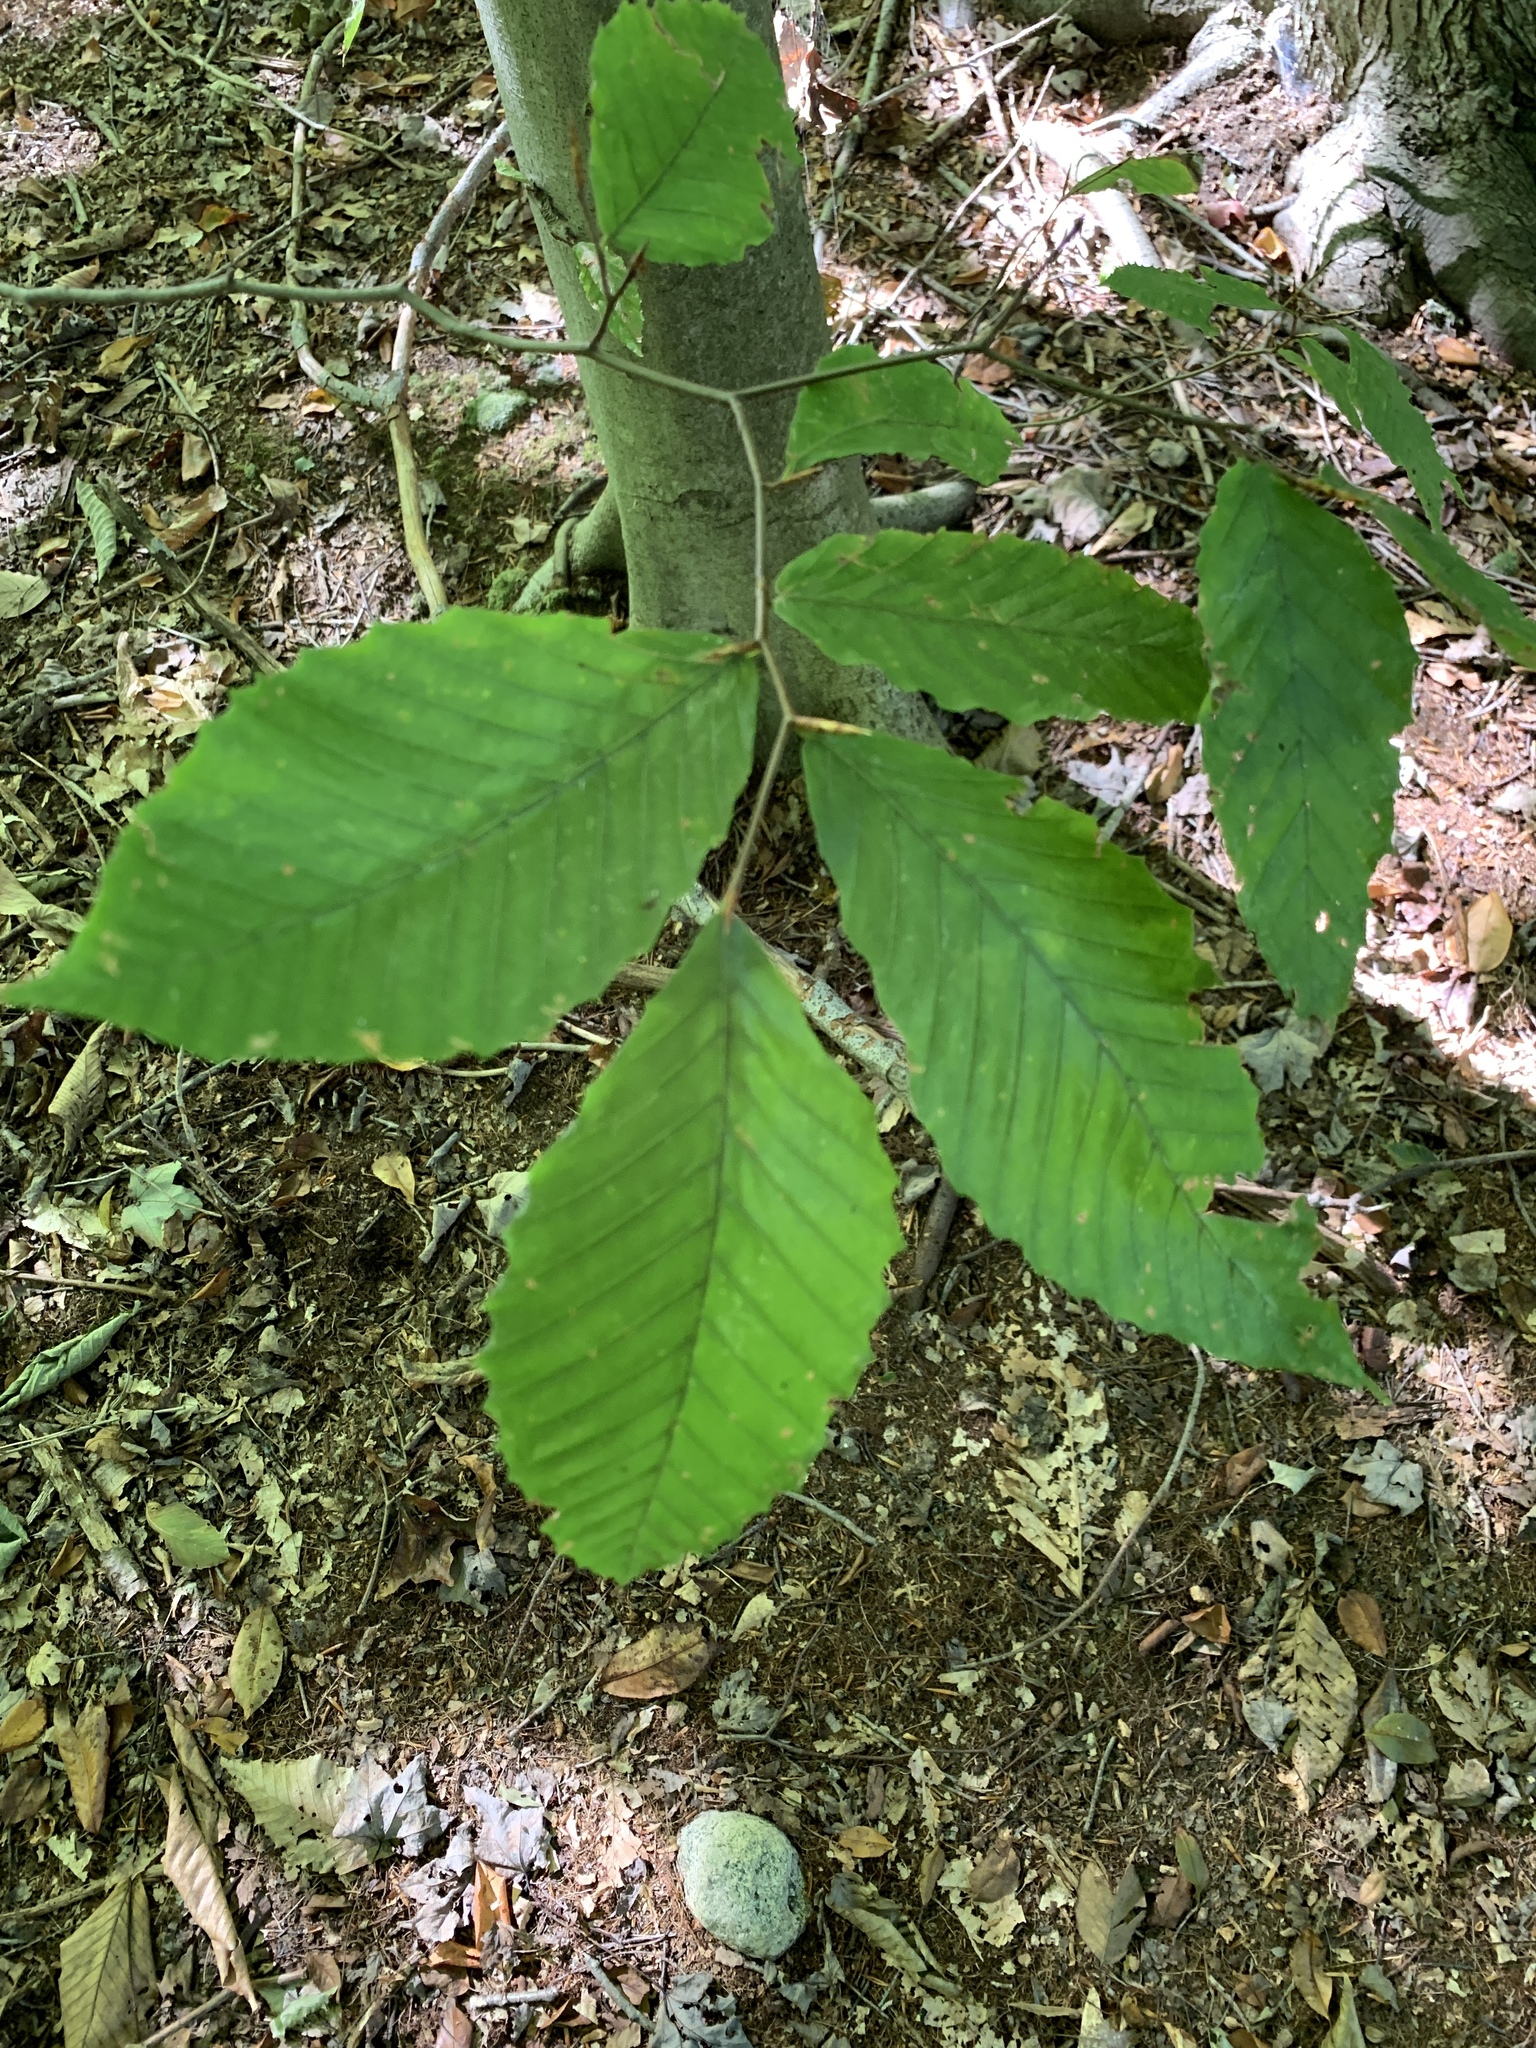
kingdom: Plantae
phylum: Tracheophyta
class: Magnoliopsida
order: Fagales
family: Fagaceae
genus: Fagus
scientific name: Fagus grandifolia
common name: American beech
